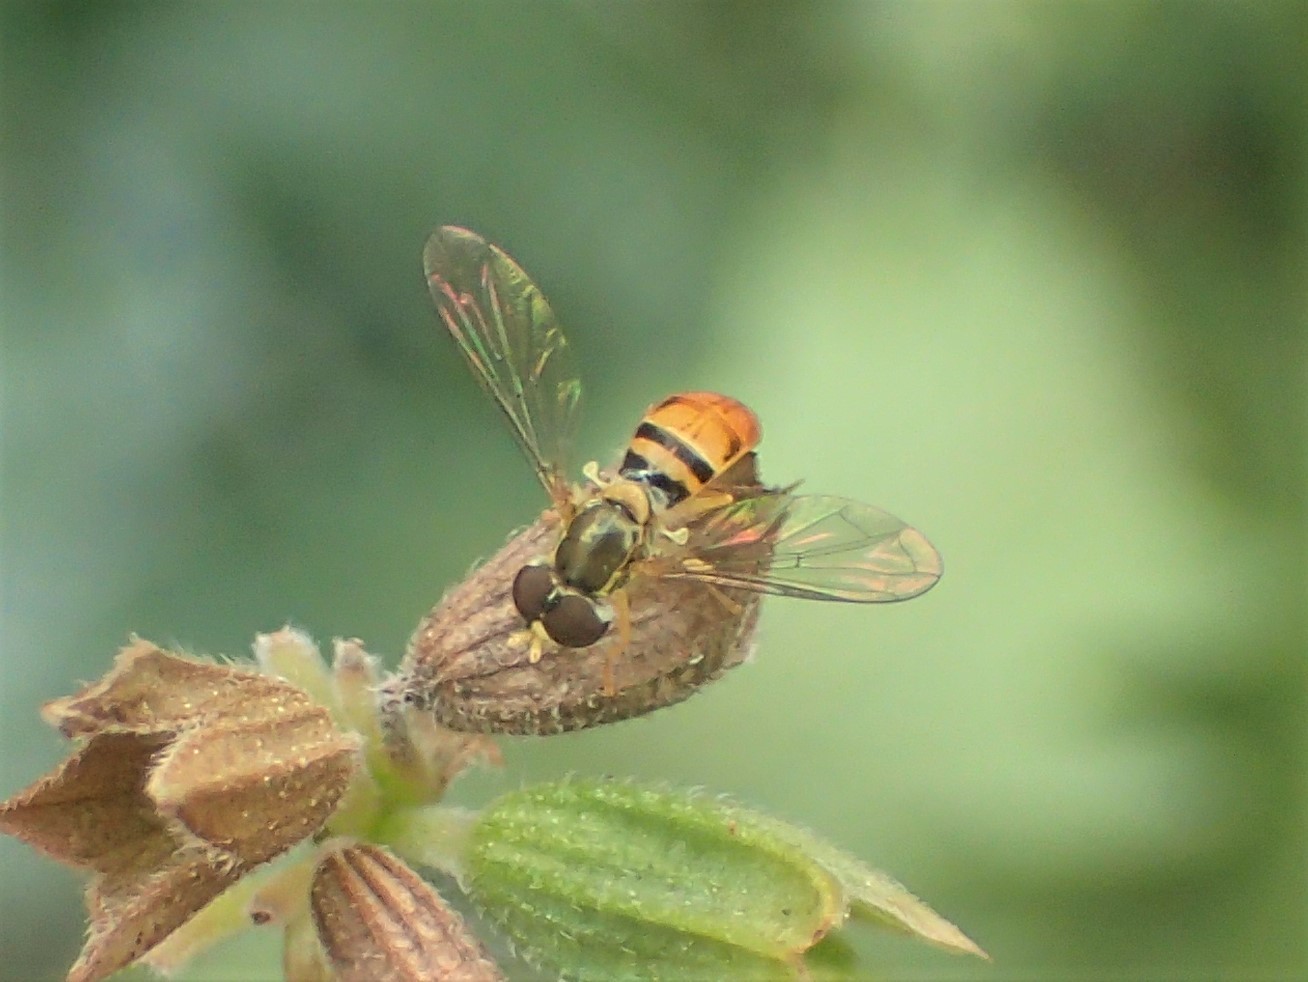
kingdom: Animalia
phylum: Arthropoda
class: Insecta
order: Diptera
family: Syrphidae
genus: Toxomerus
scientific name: Toxomerus marginatus
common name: Syrphid fly
